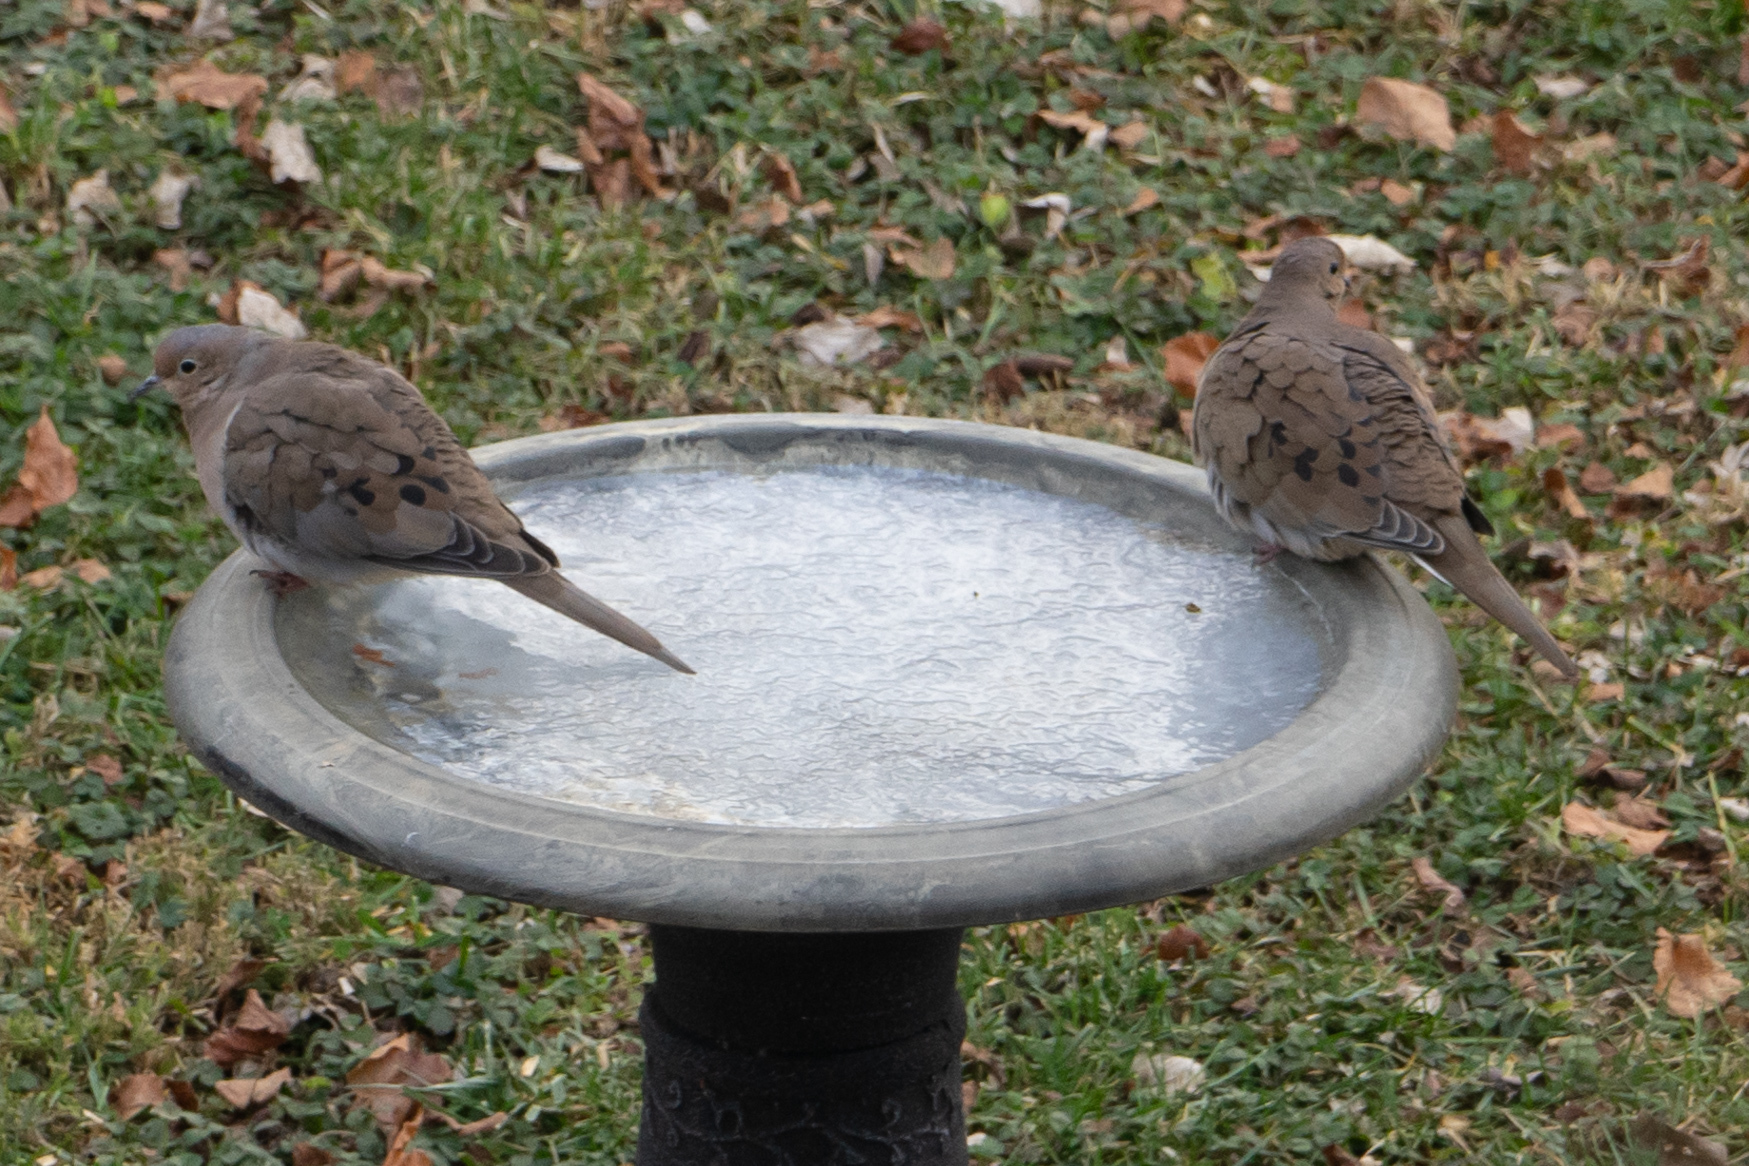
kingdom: Animalia
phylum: Chordata
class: Aves
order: Columbiformes
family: Columbidae
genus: Zenaida
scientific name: Zenaida macroura
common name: Mourning dove
